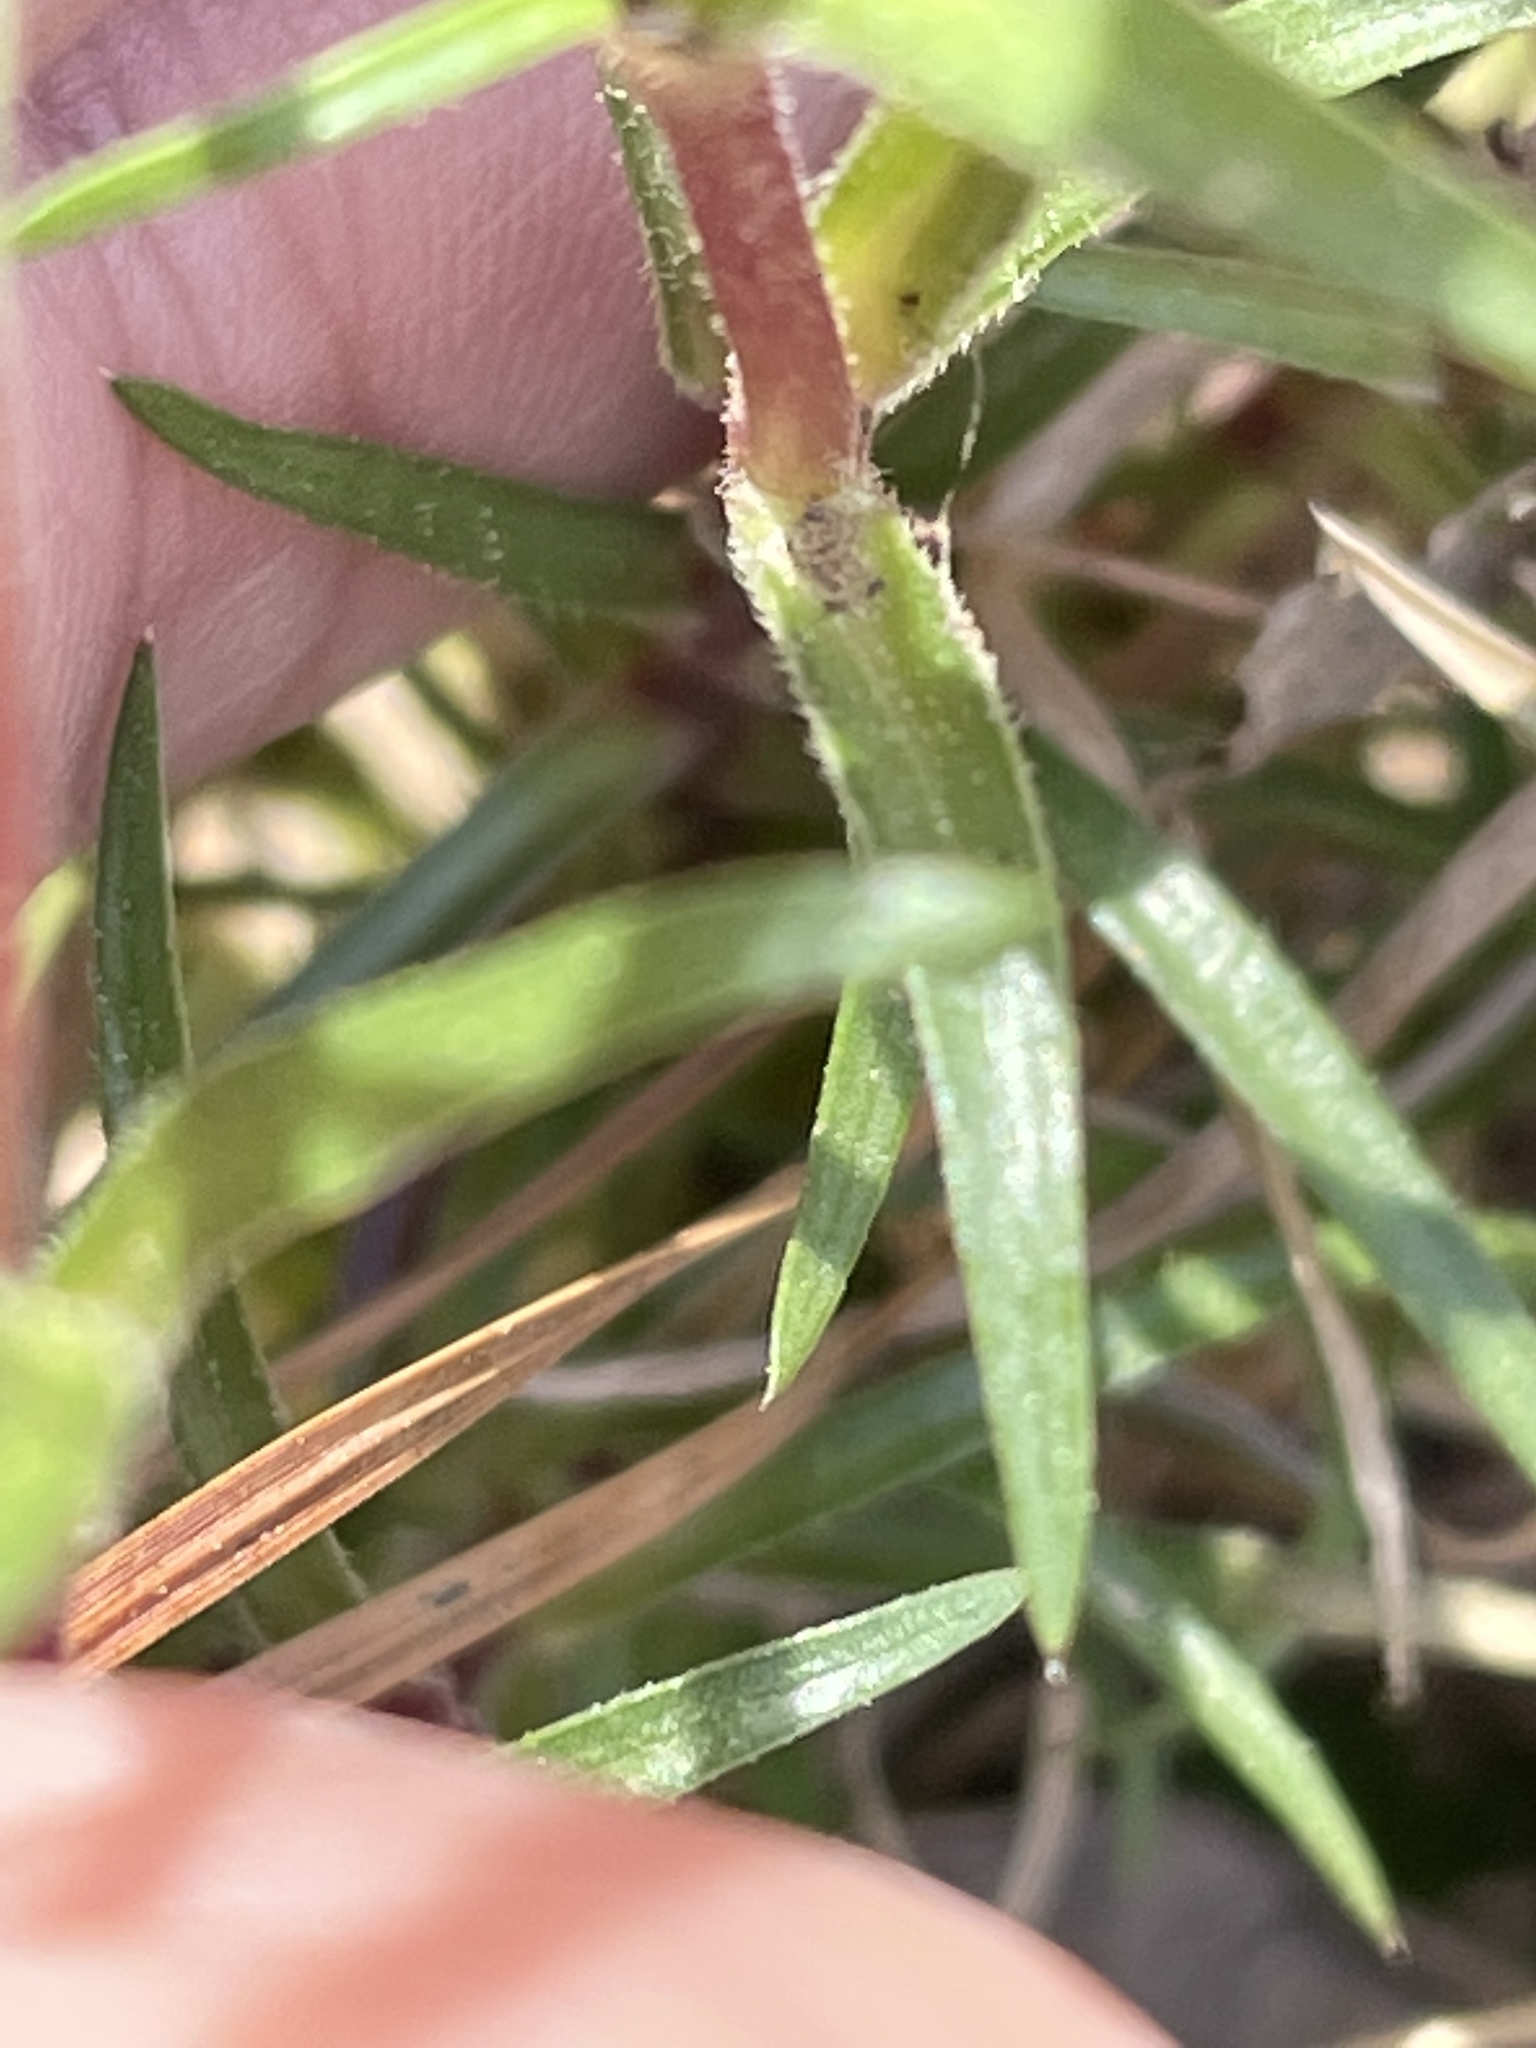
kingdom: Plantae
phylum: Tracheophyta
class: Magnoliopsida
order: Ericales
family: Polemoniaceae
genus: Phlox
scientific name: Phlox nivalis
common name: Trailing phlox
